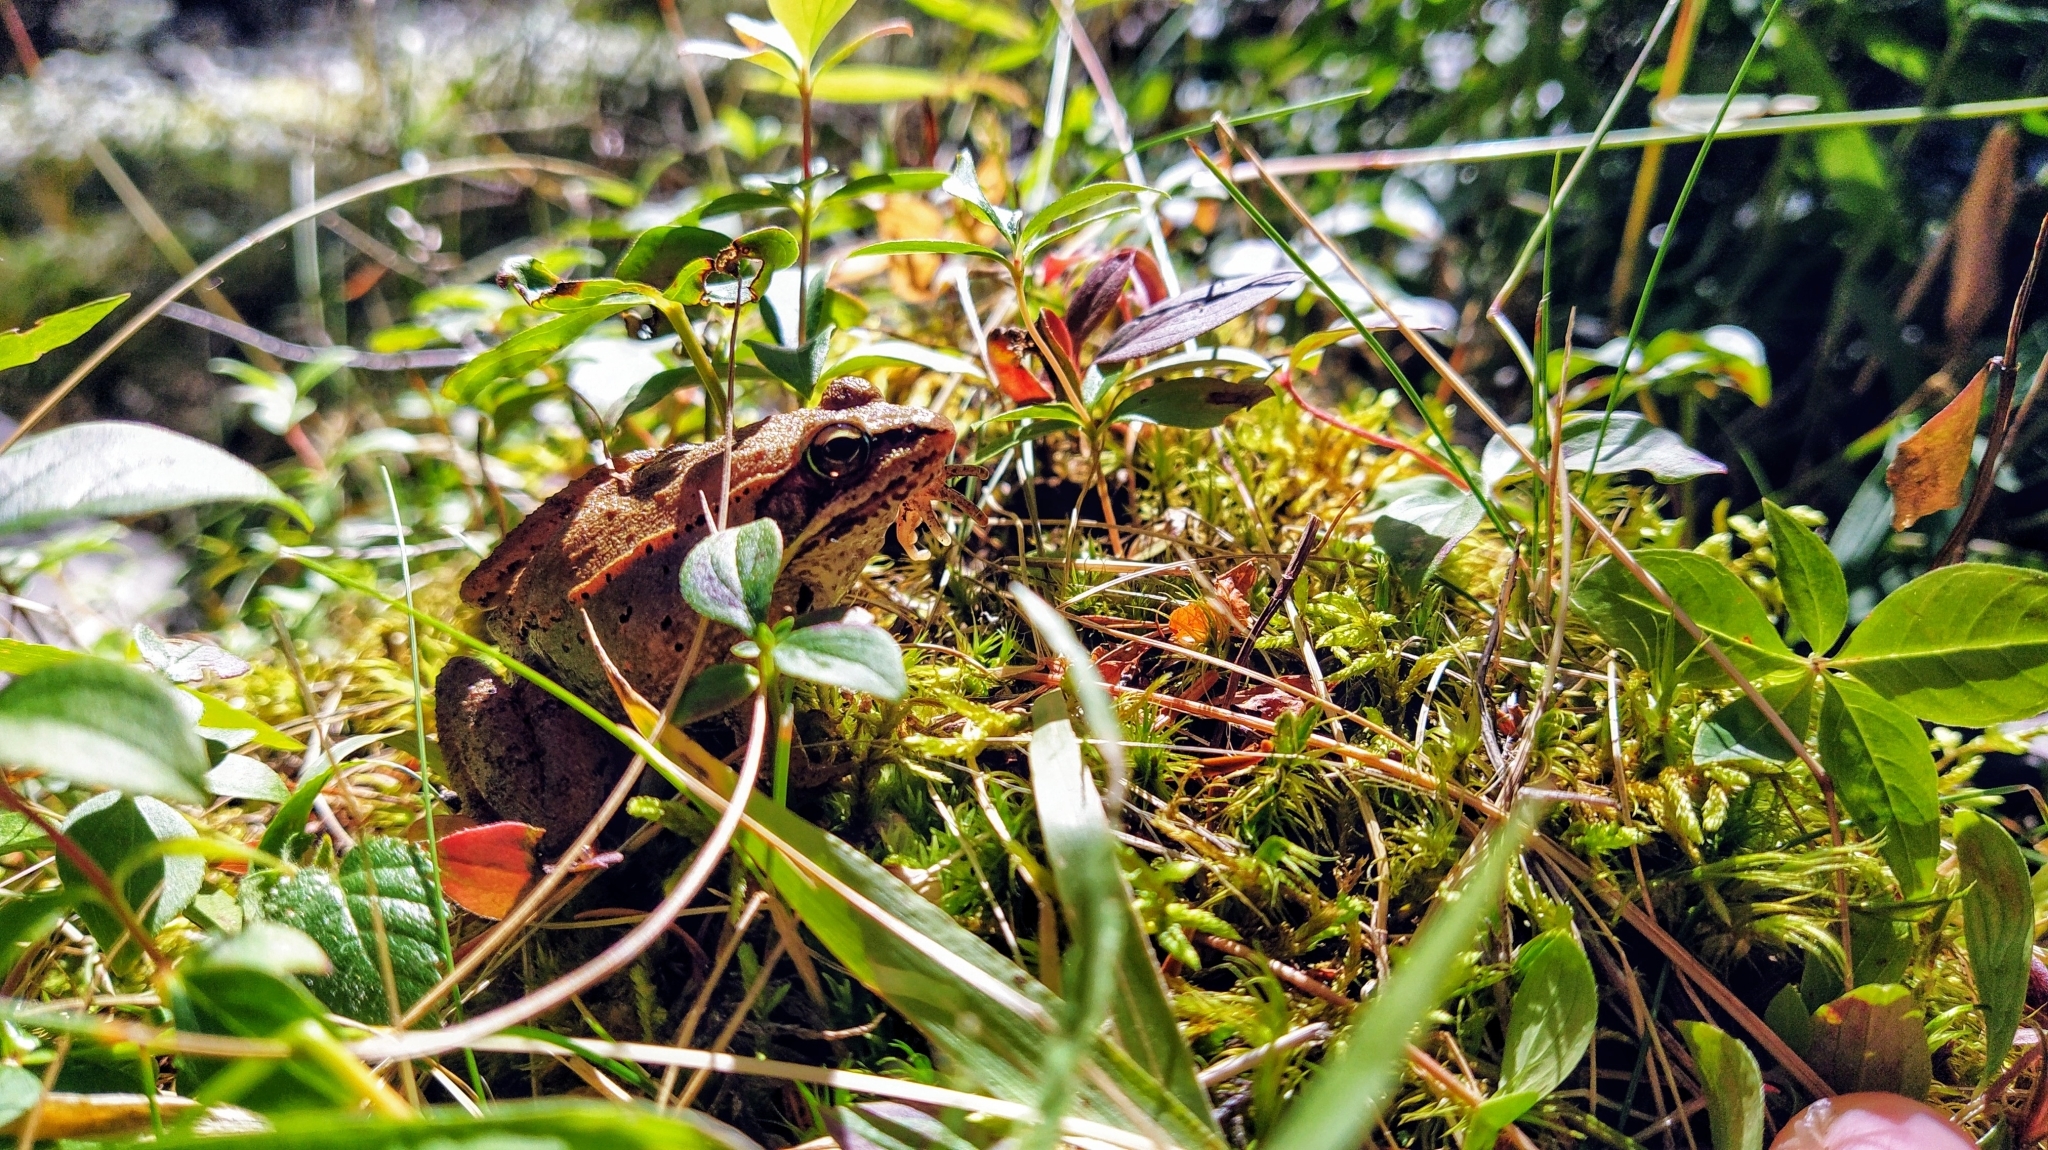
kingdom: Animalia
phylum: Chordata
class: Amphibia
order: Anura
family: Ranidae
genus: Lithobates
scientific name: Lithobates sylvaticus
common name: Wood frog
